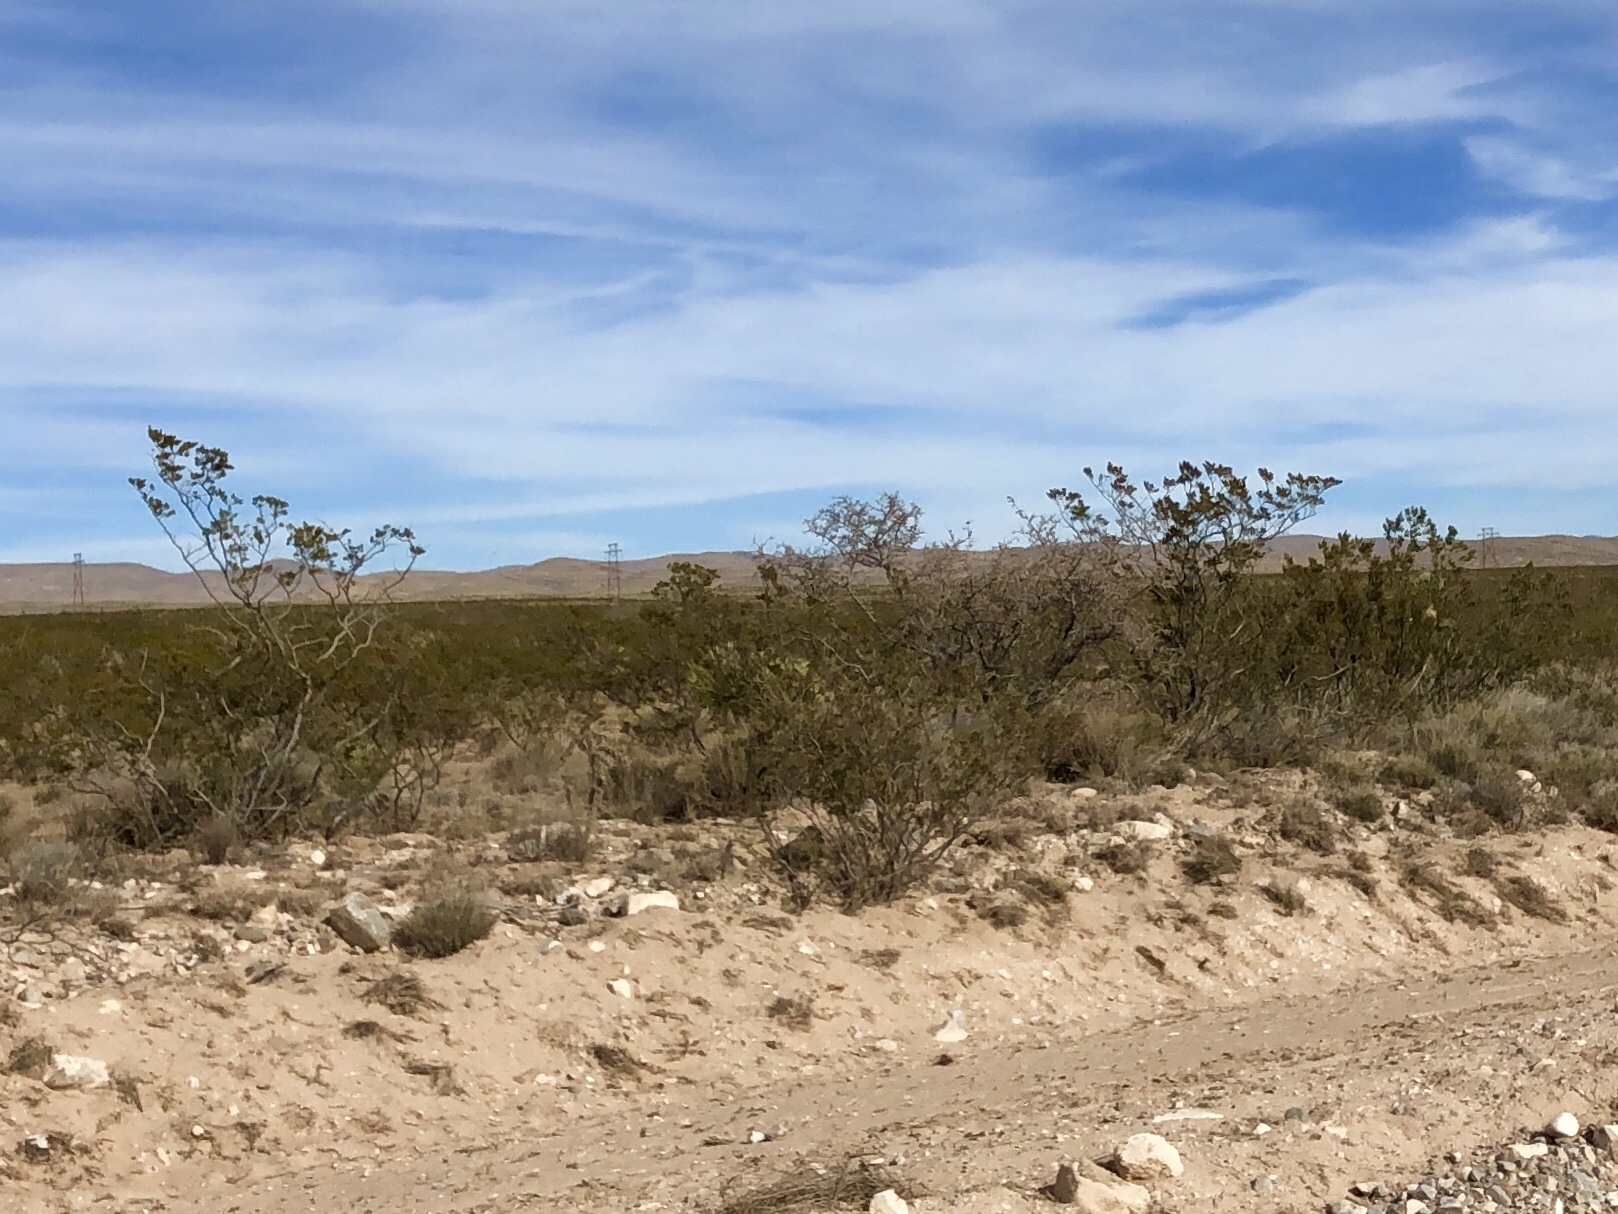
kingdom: Plantae
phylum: Tracheophyta
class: Magnoliopsida
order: Zygophyllales
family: Zygophyllaceae
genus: Larrea
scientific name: Larrea tridentata
